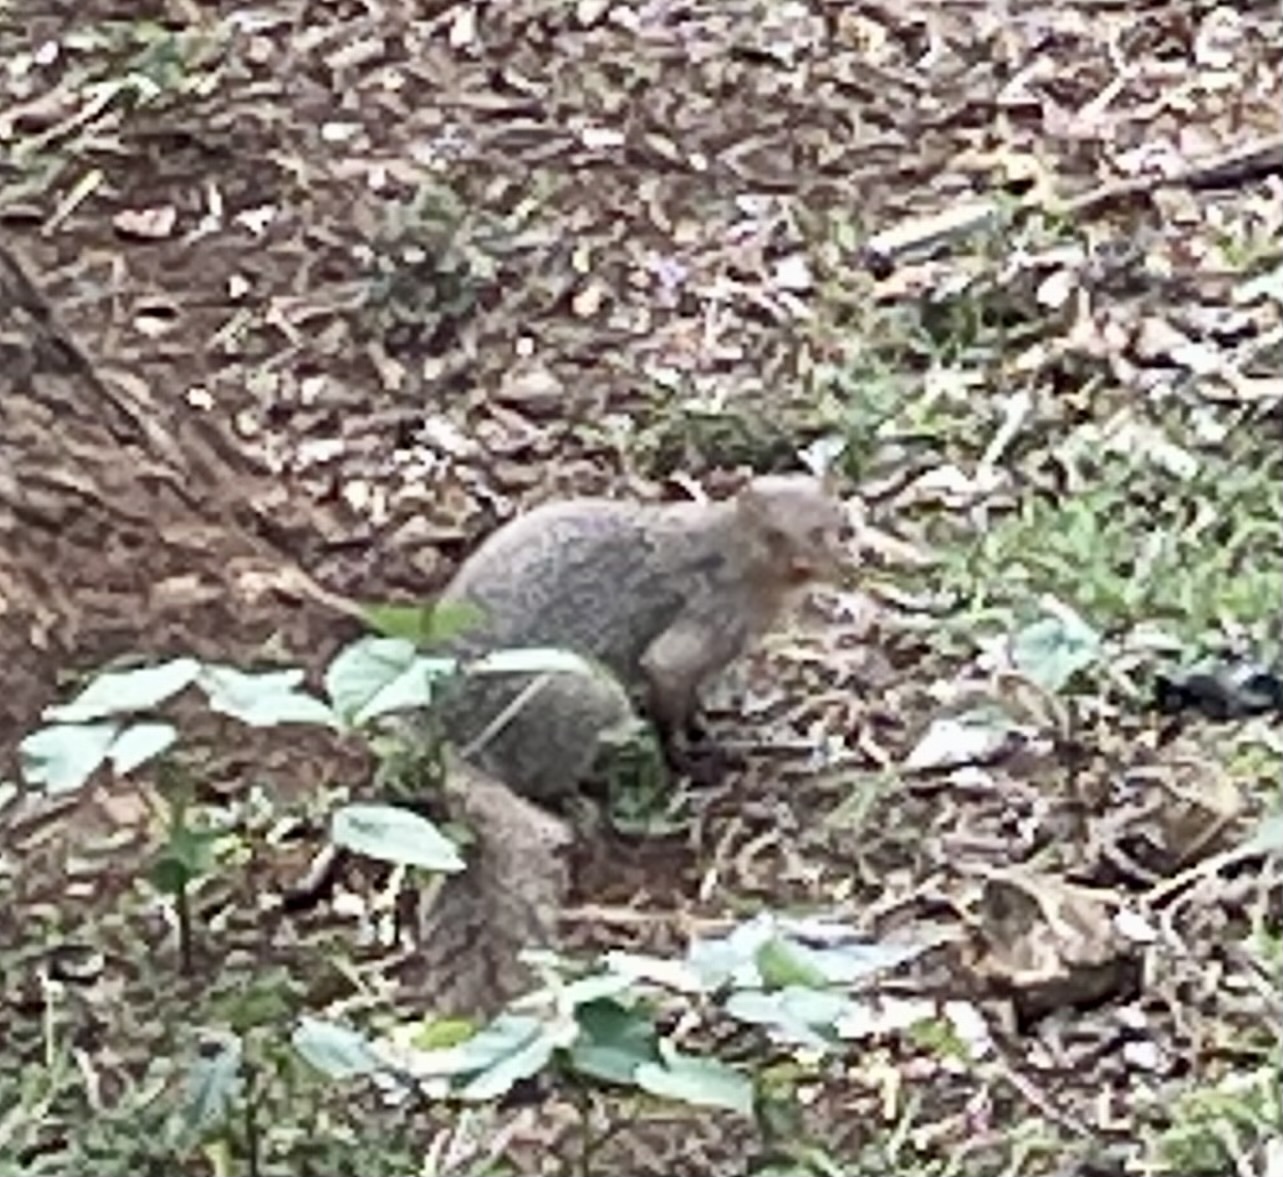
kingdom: Animalia
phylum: Chordata
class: Mammalia
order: Carnivora
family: Herpestidae
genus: Herpestes
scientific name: Herpestes edwardsi
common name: Indian gray mongoose
